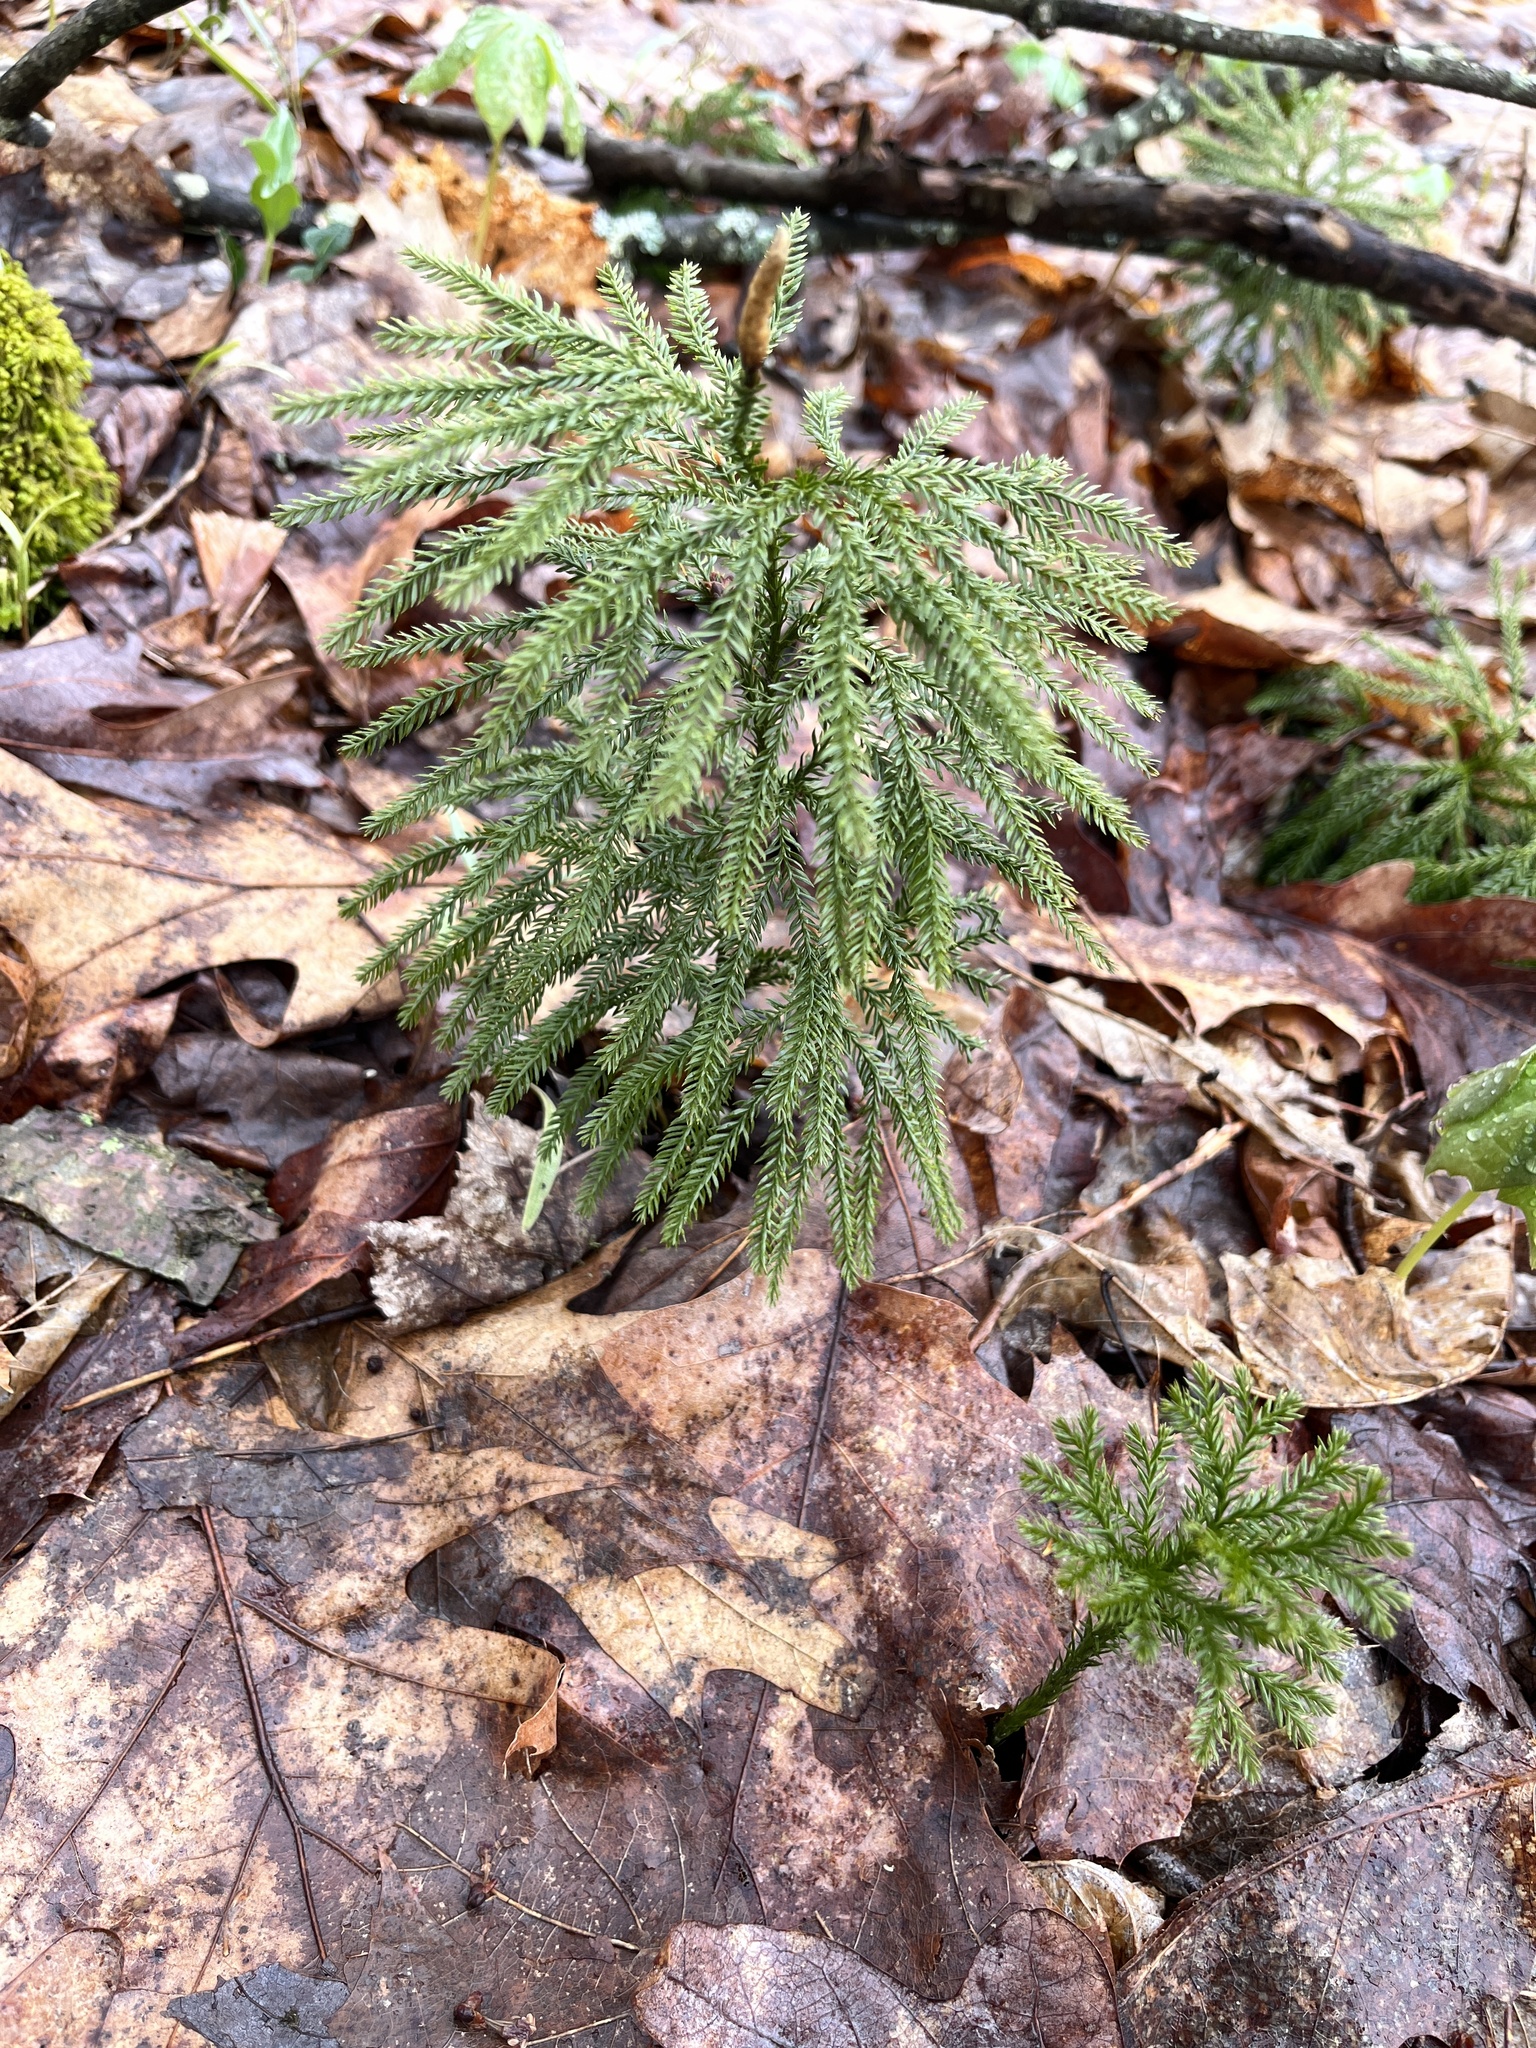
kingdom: Plantae
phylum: Tracheophyta
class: Lycopodiopsida
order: Lycopodiales
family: Lycopodiaceae
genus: Dendrolycopodium
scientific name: Dendrolycopodium obscurum
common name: Common ground-pine
